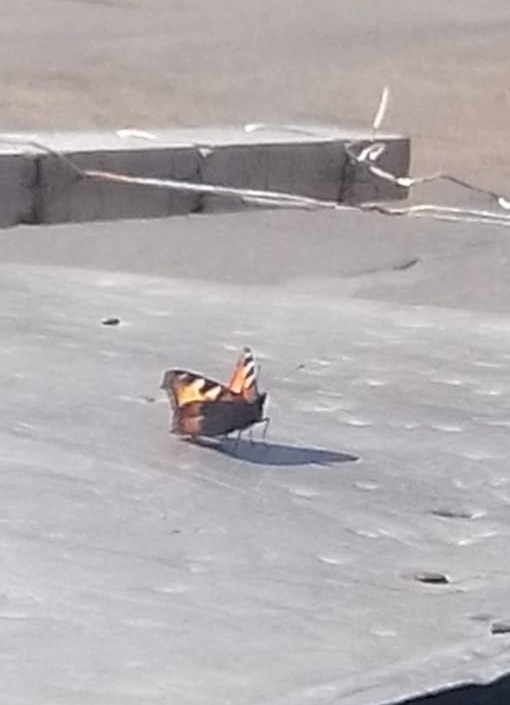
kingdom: Animalia
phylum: Arthropoda
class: Insecta
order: Lepidoptera
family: Nymphalidae
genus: Aglais
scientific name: Aglais urticae
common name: Small tortoiseshell
